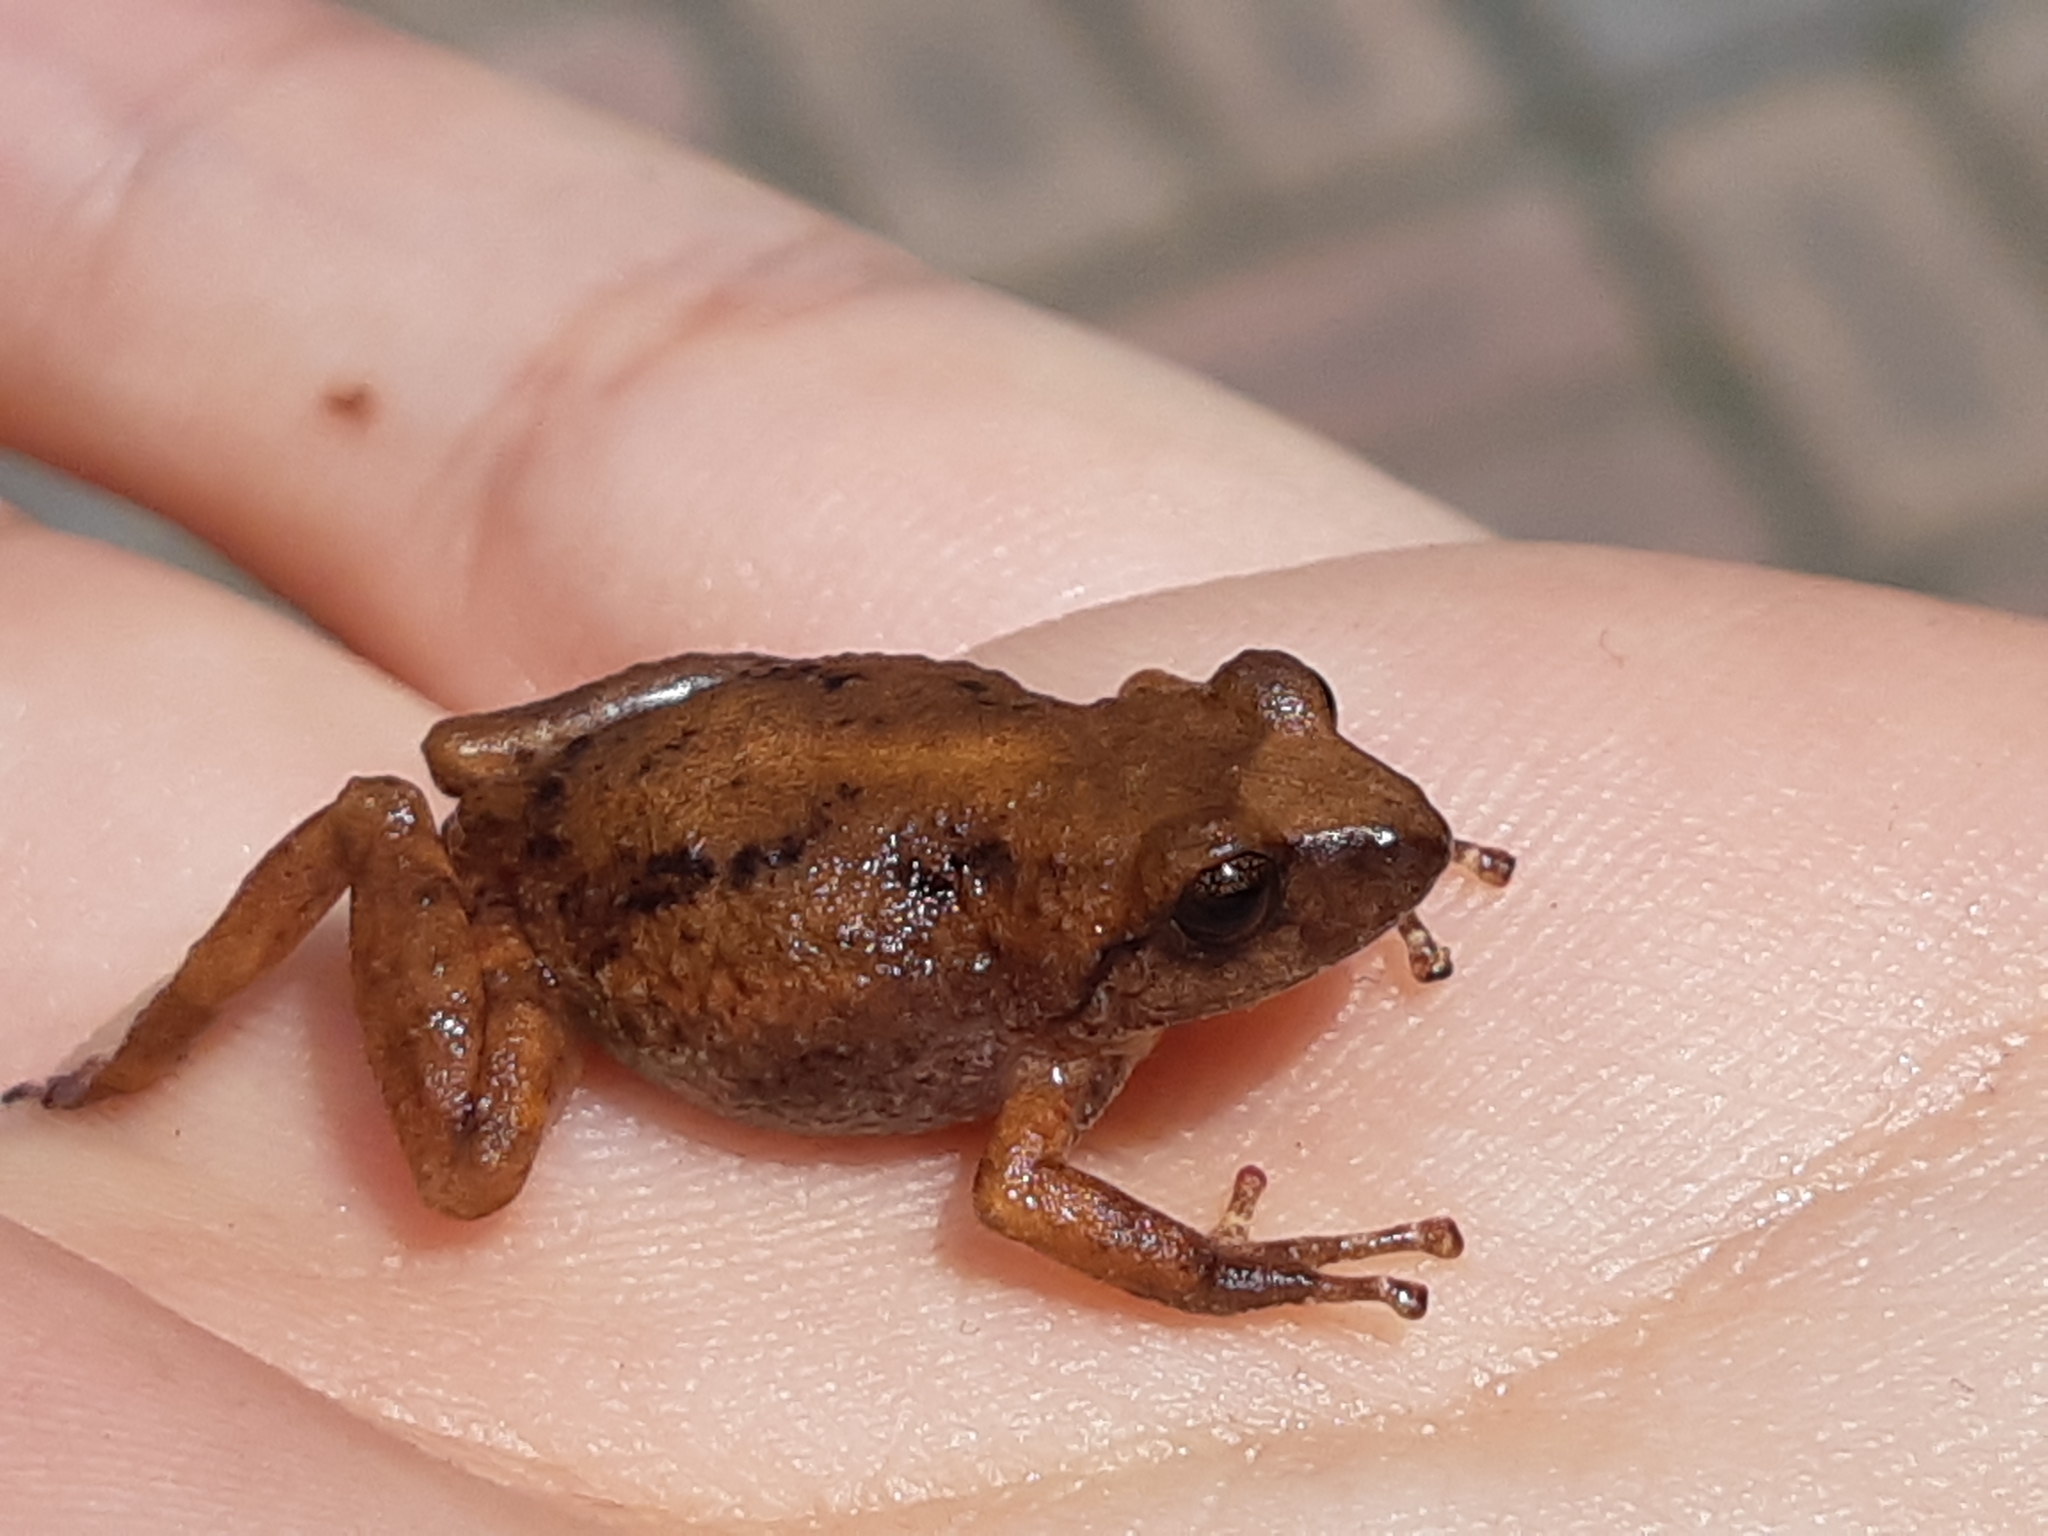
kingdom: Animalia
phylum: Chordata
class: Amphibia
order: Anura
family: Craugastoridae
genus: Pristimantis
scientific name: Pristimantis unistrigatus
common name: Striped robber frog
